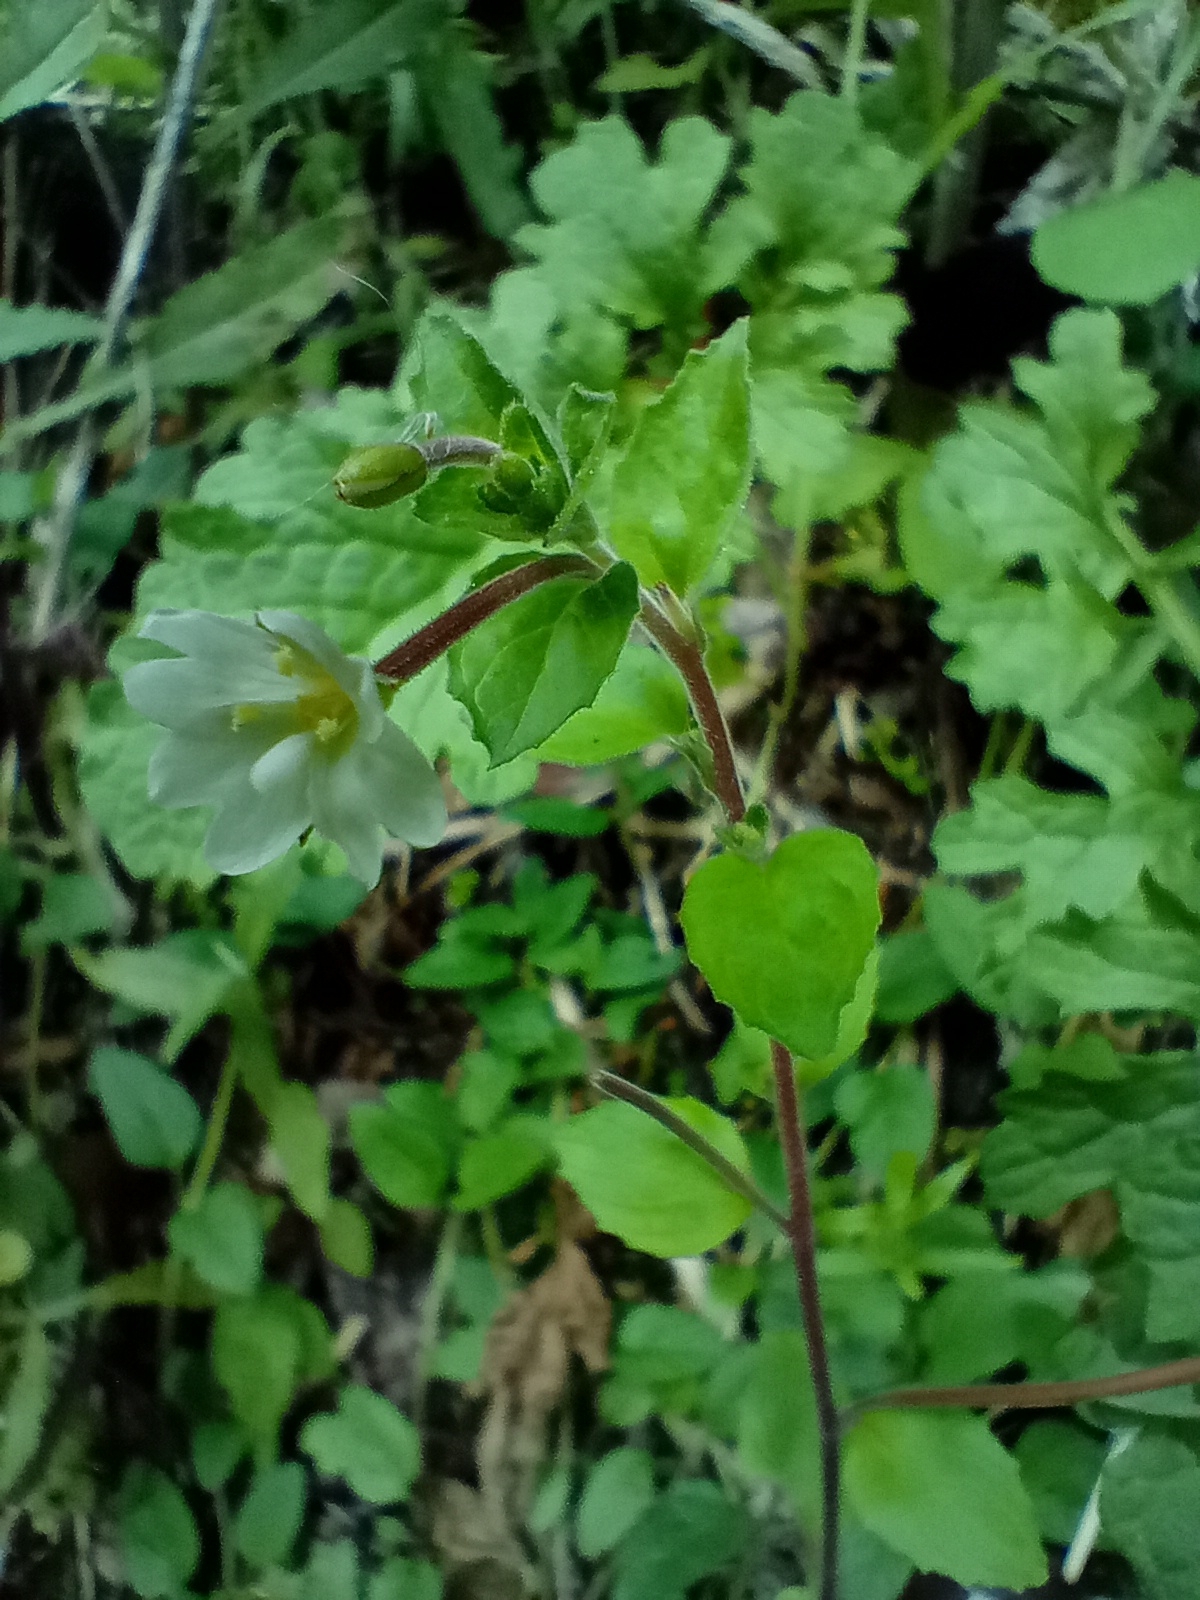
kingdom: Plantae
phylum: Tracheophyta
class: Magnoliopsida
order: Myrtales
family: Onagraceae
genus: Epilobium
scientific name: Epilobium pubens
